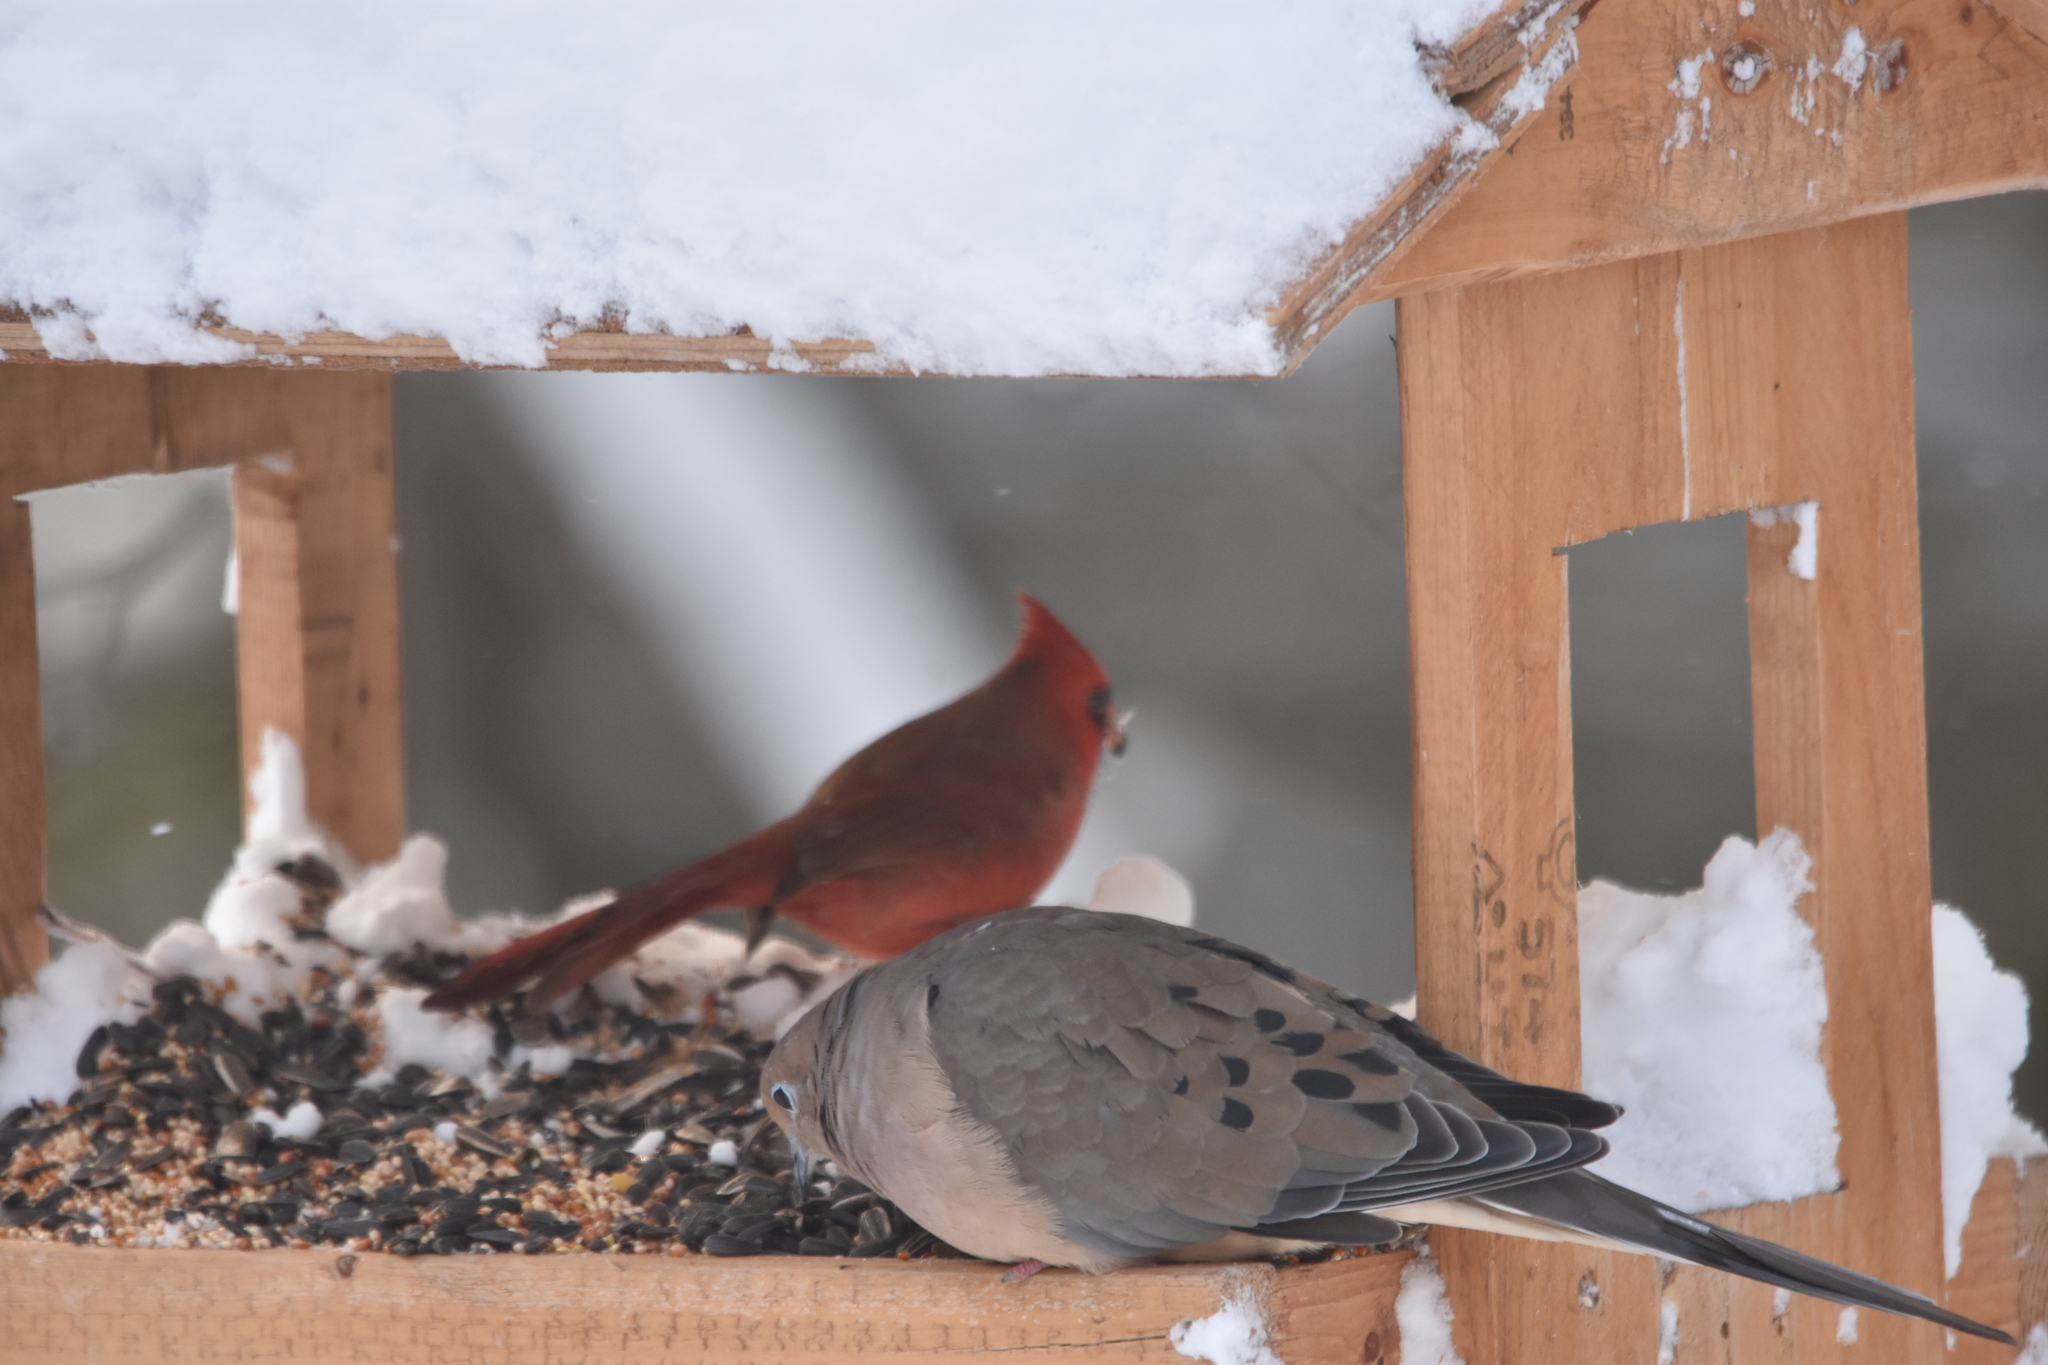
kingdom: Animalia
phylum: Chordata
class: Aves
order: Passeriformes
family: Cardinalidae
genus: Cardinalis
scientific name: Cardinalis cardinalis
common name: Northern cardinal
